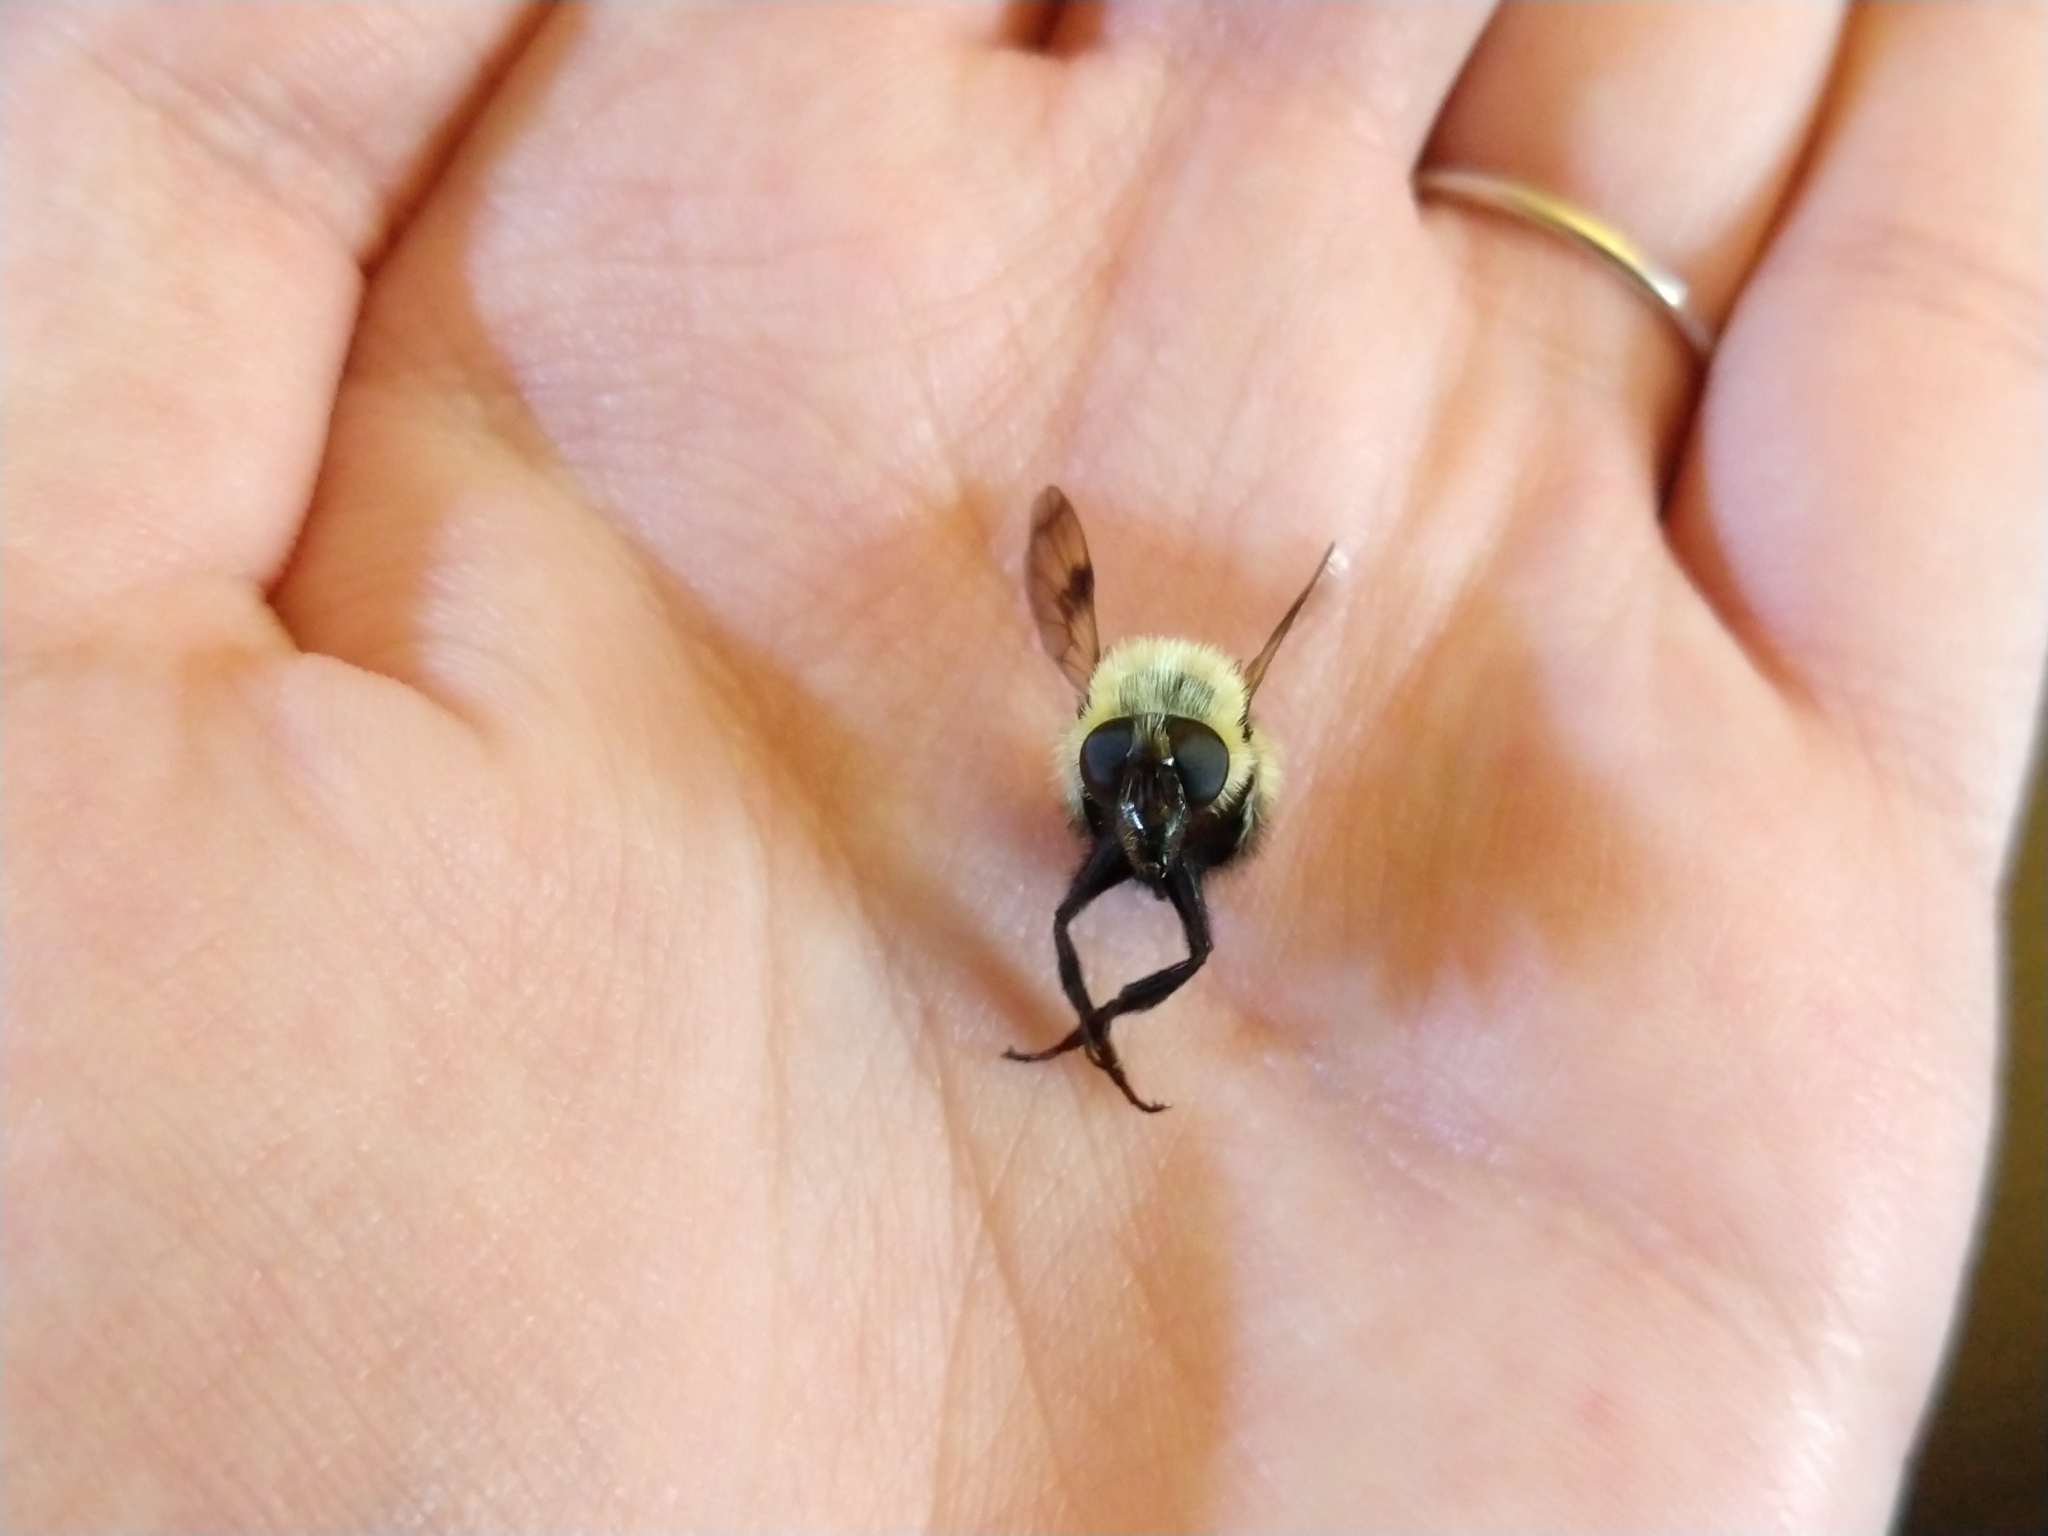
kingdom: Animalia
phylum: Arthropoda
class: Insecta
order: Diptera
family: Syrphidae
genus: Volucella
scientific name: Volucella evecta
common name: Eastern swiftwing
